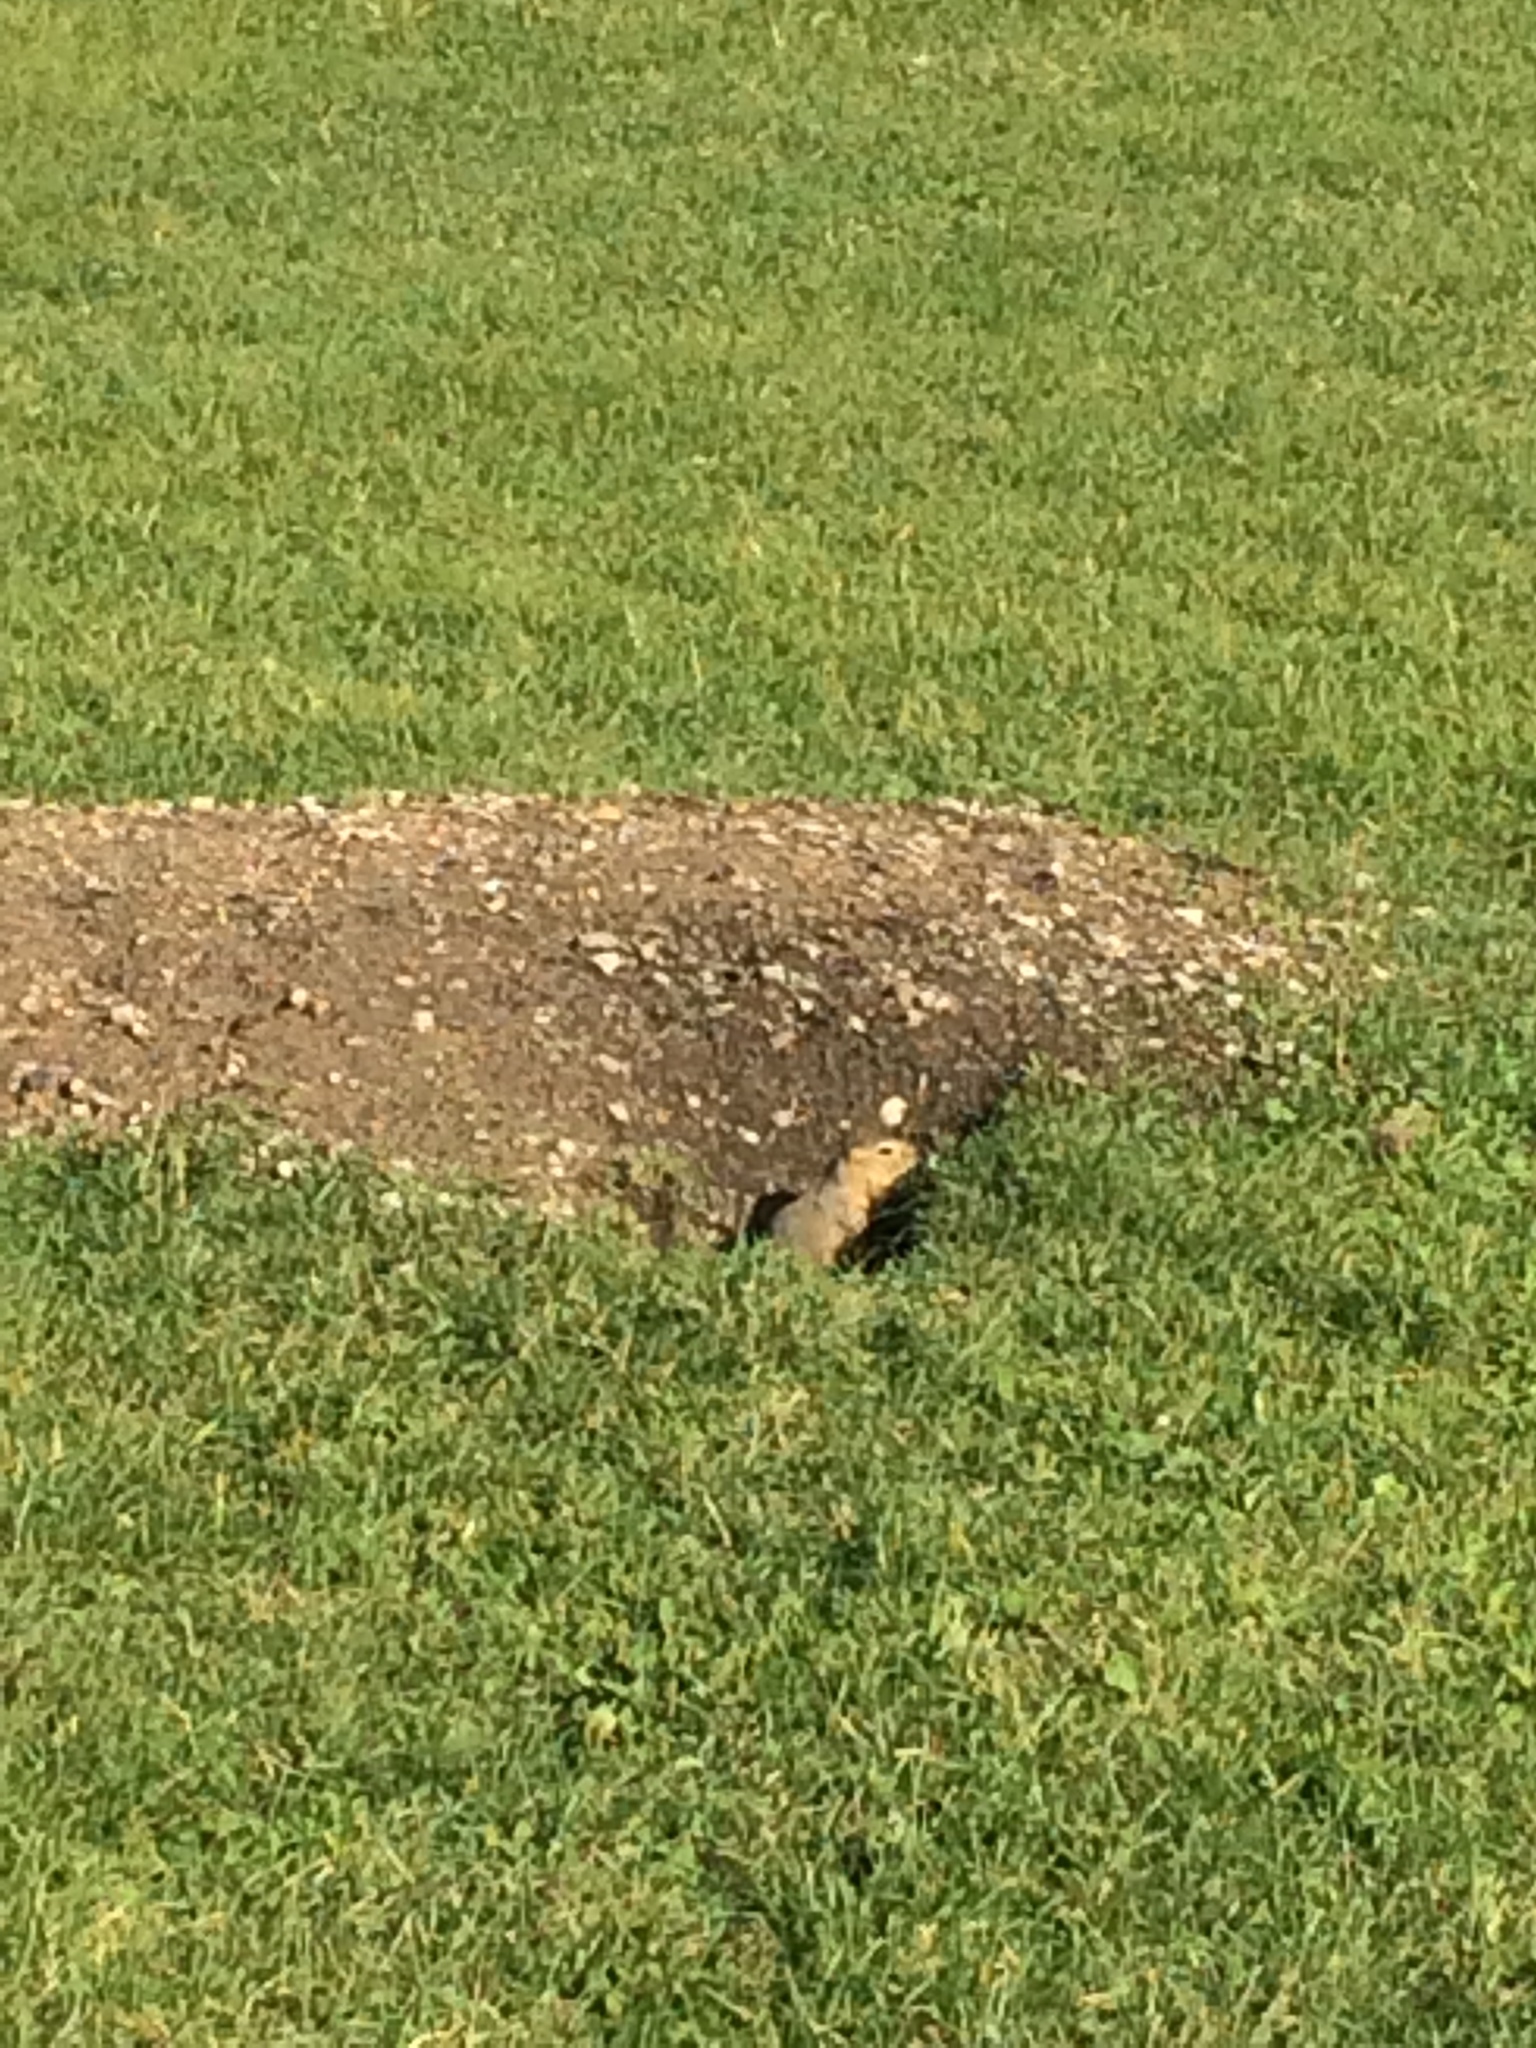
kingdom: Animalia
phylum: Chordata
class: Mammalia
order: Rodentia
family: Sciuridae
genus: Urocitellus
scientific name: Urocitellus richardsonii
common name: Richardson's ground squirrel
